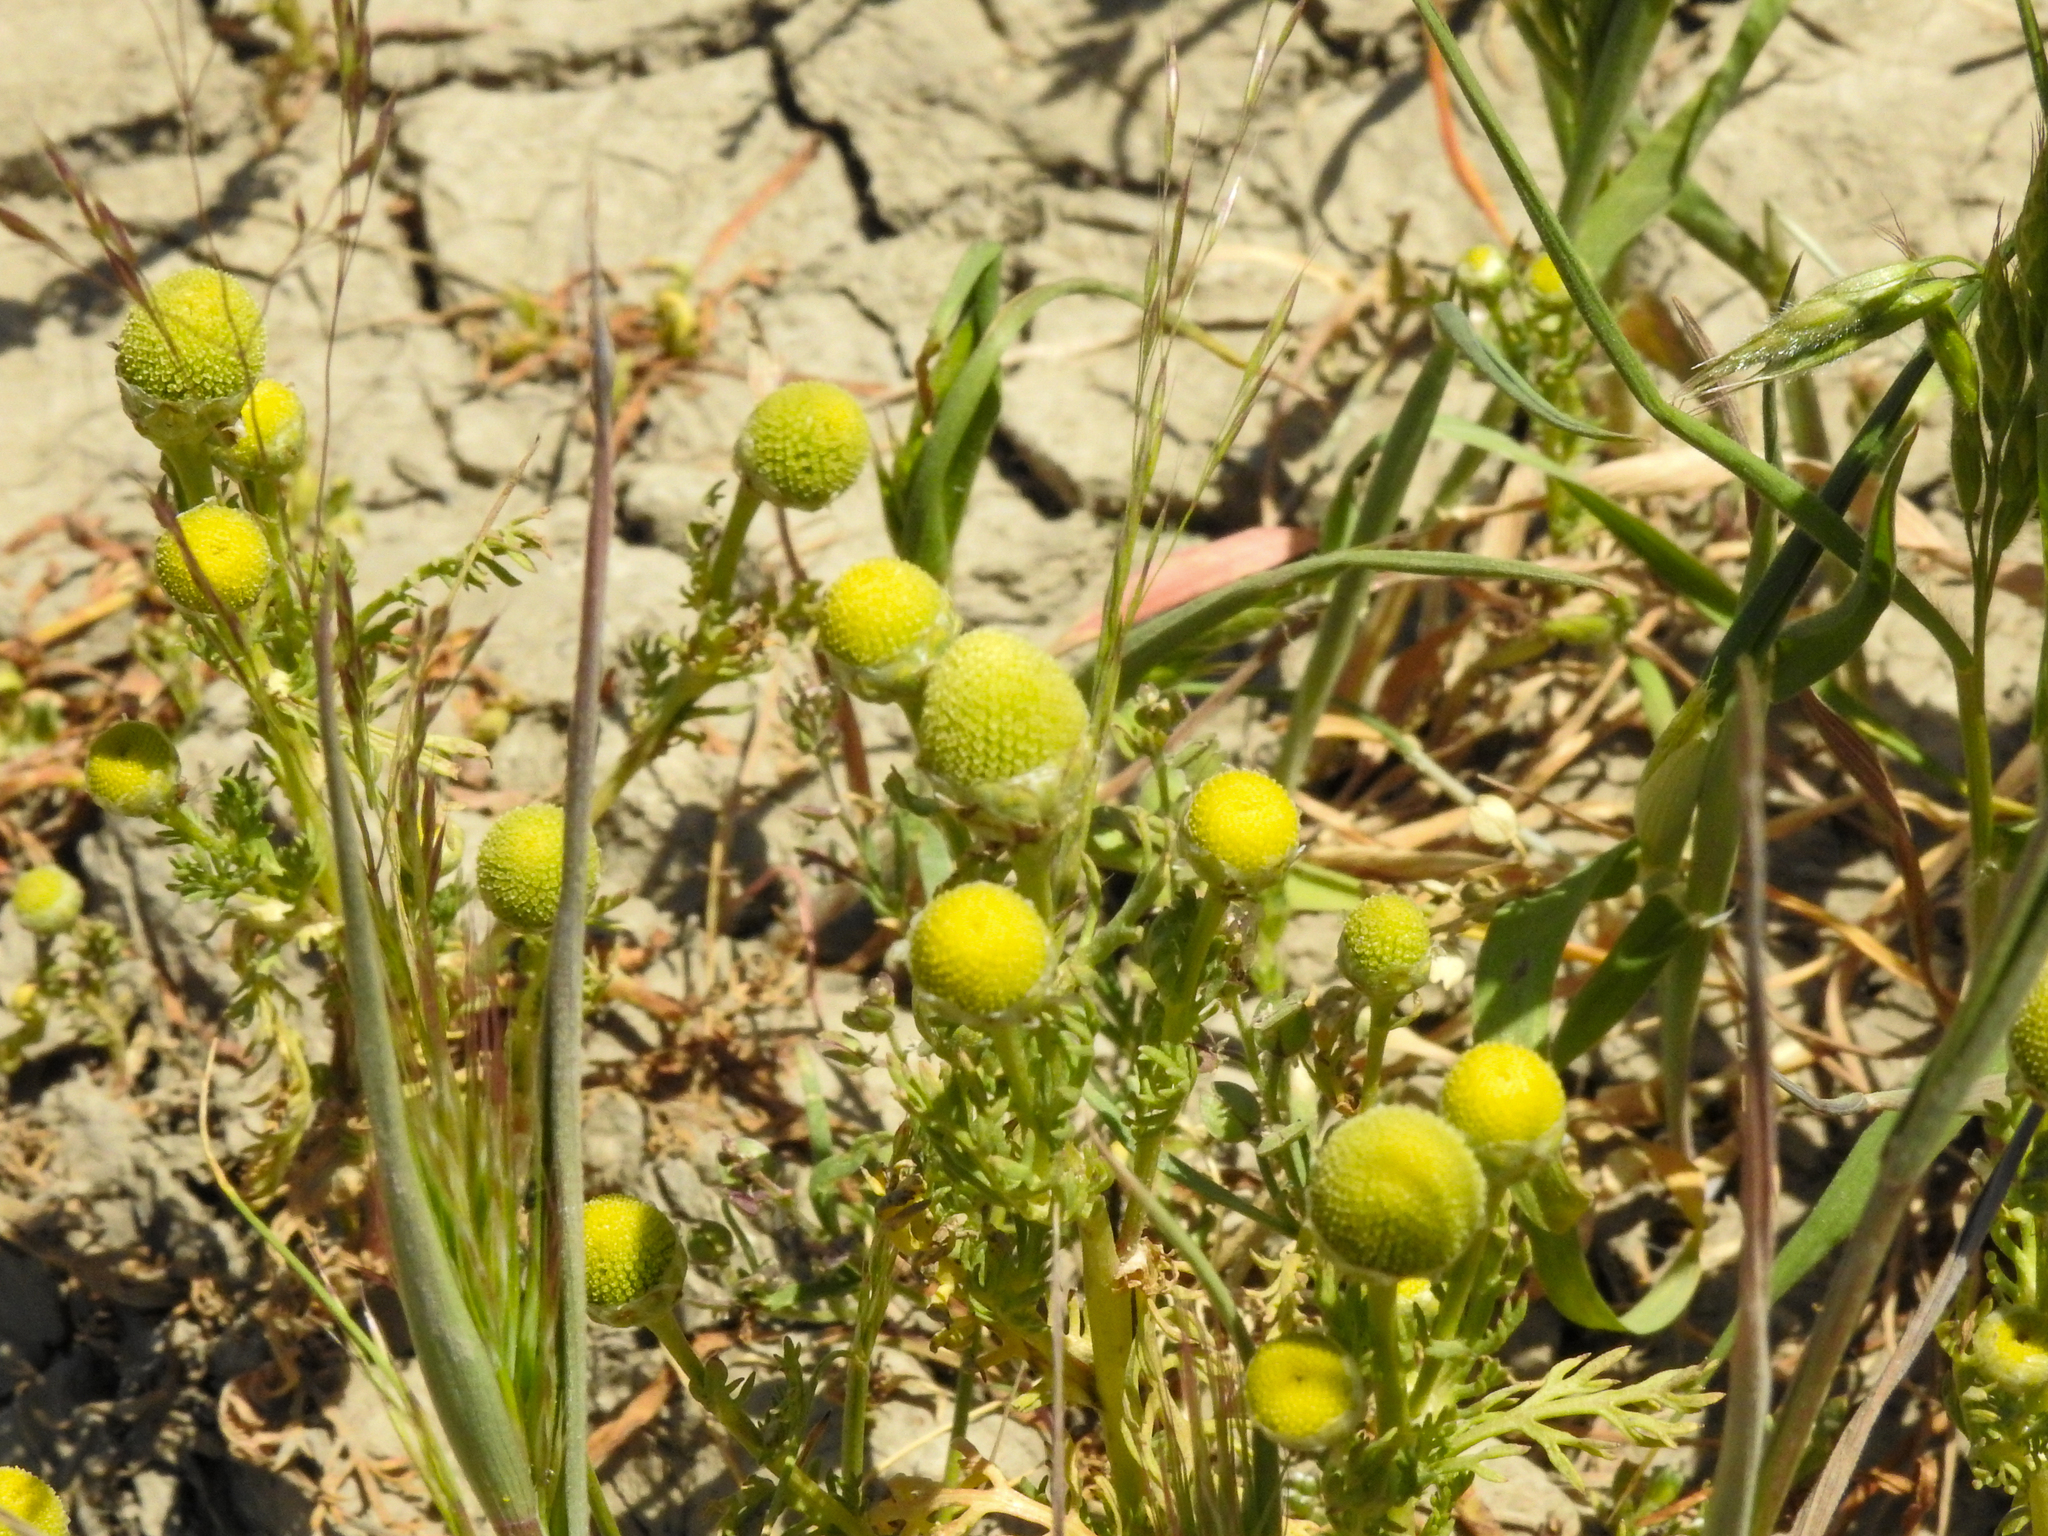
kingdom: Plantae
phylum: Tracheophyta
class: Magnoliopsida
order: Asterales
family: Asteraceae
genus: Matricaria
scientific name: Matricaria discoidea
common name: Disc mayweed
